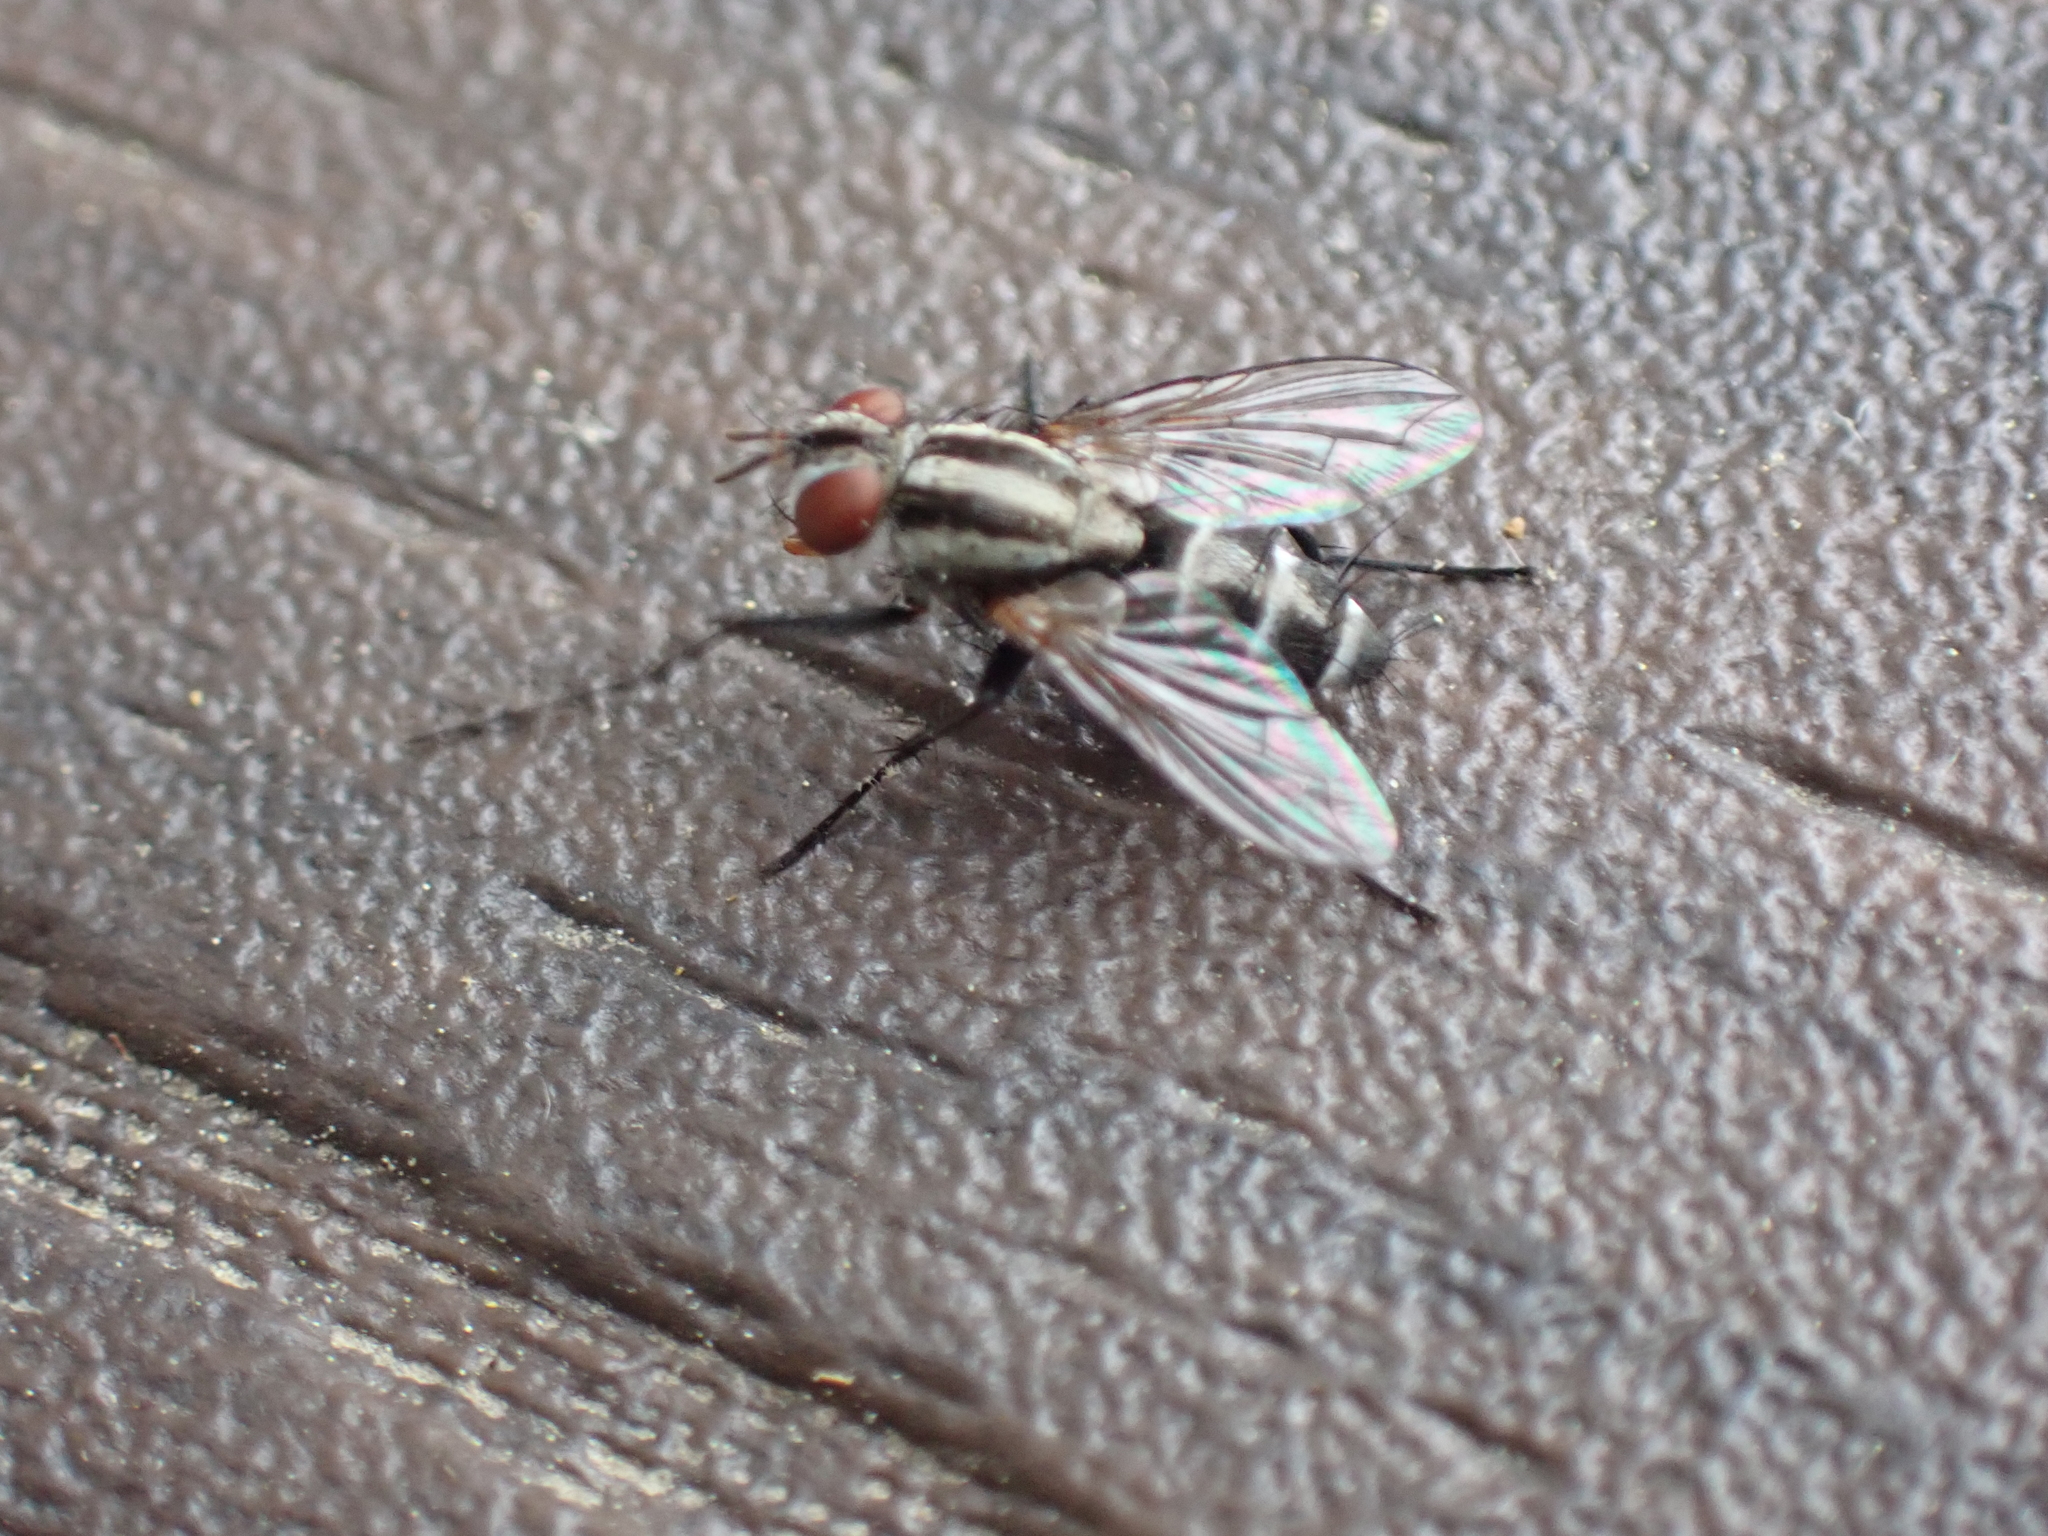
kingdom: Animalia
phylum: Arthropoda
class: Insecta
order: Diptera
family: Tachinidae
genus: Paradidyma
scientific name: Paradidyma singularis
